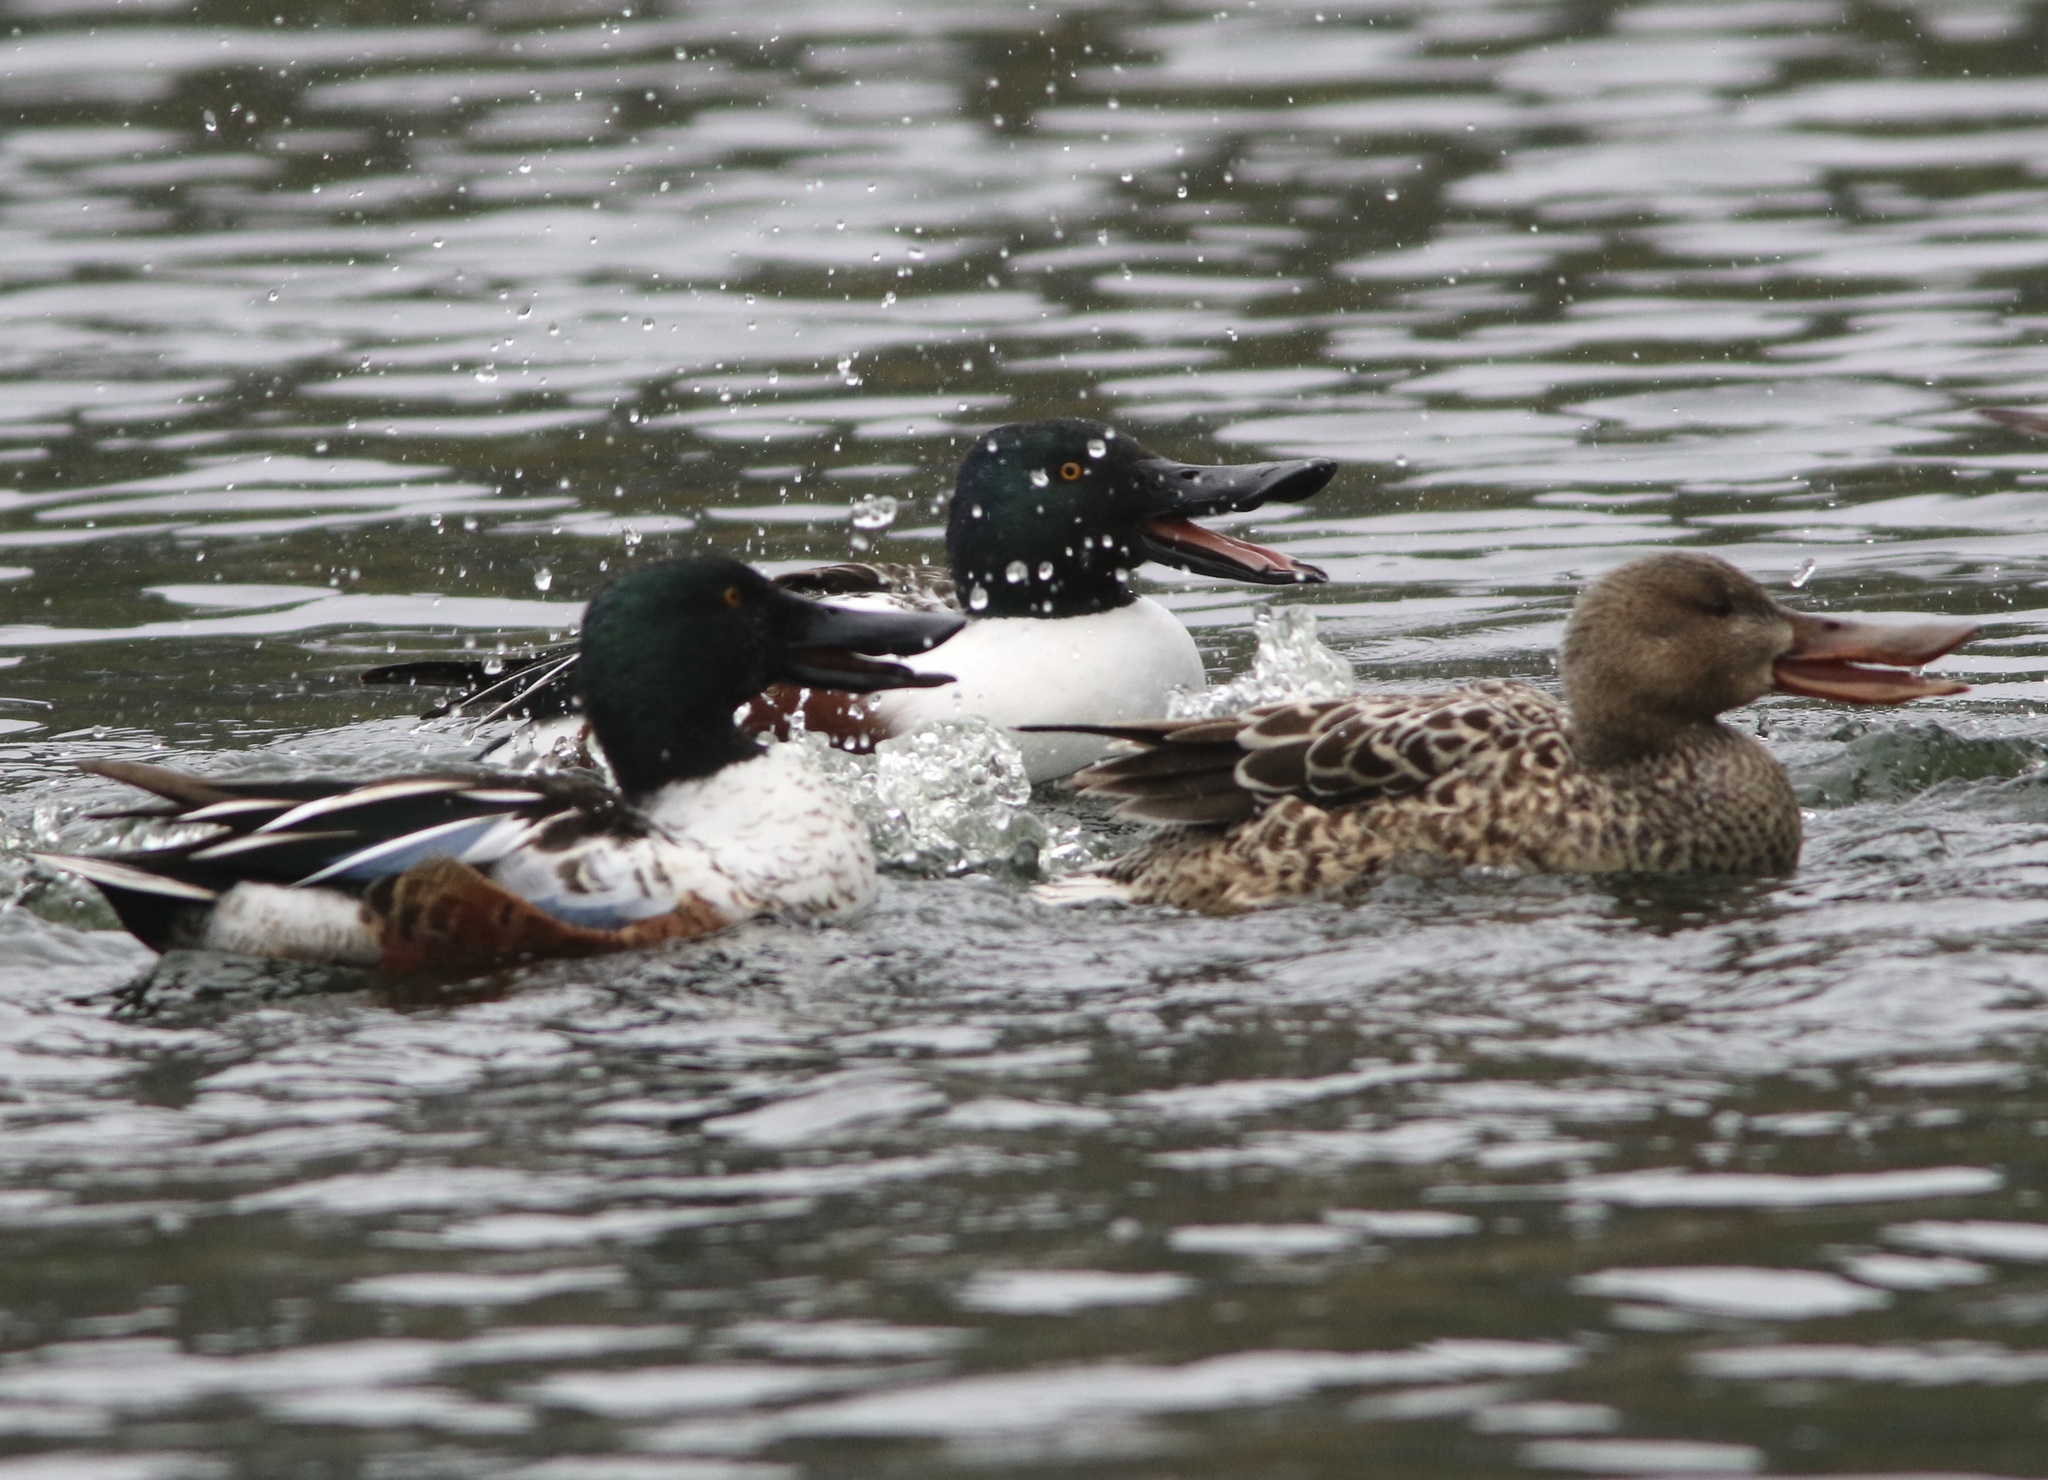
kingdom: Animalia
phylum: Chordata
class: Aves
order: Anseriformes
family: Anatidae
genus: Spatula
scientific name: Spatula clypeata
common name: Northern shoveler
